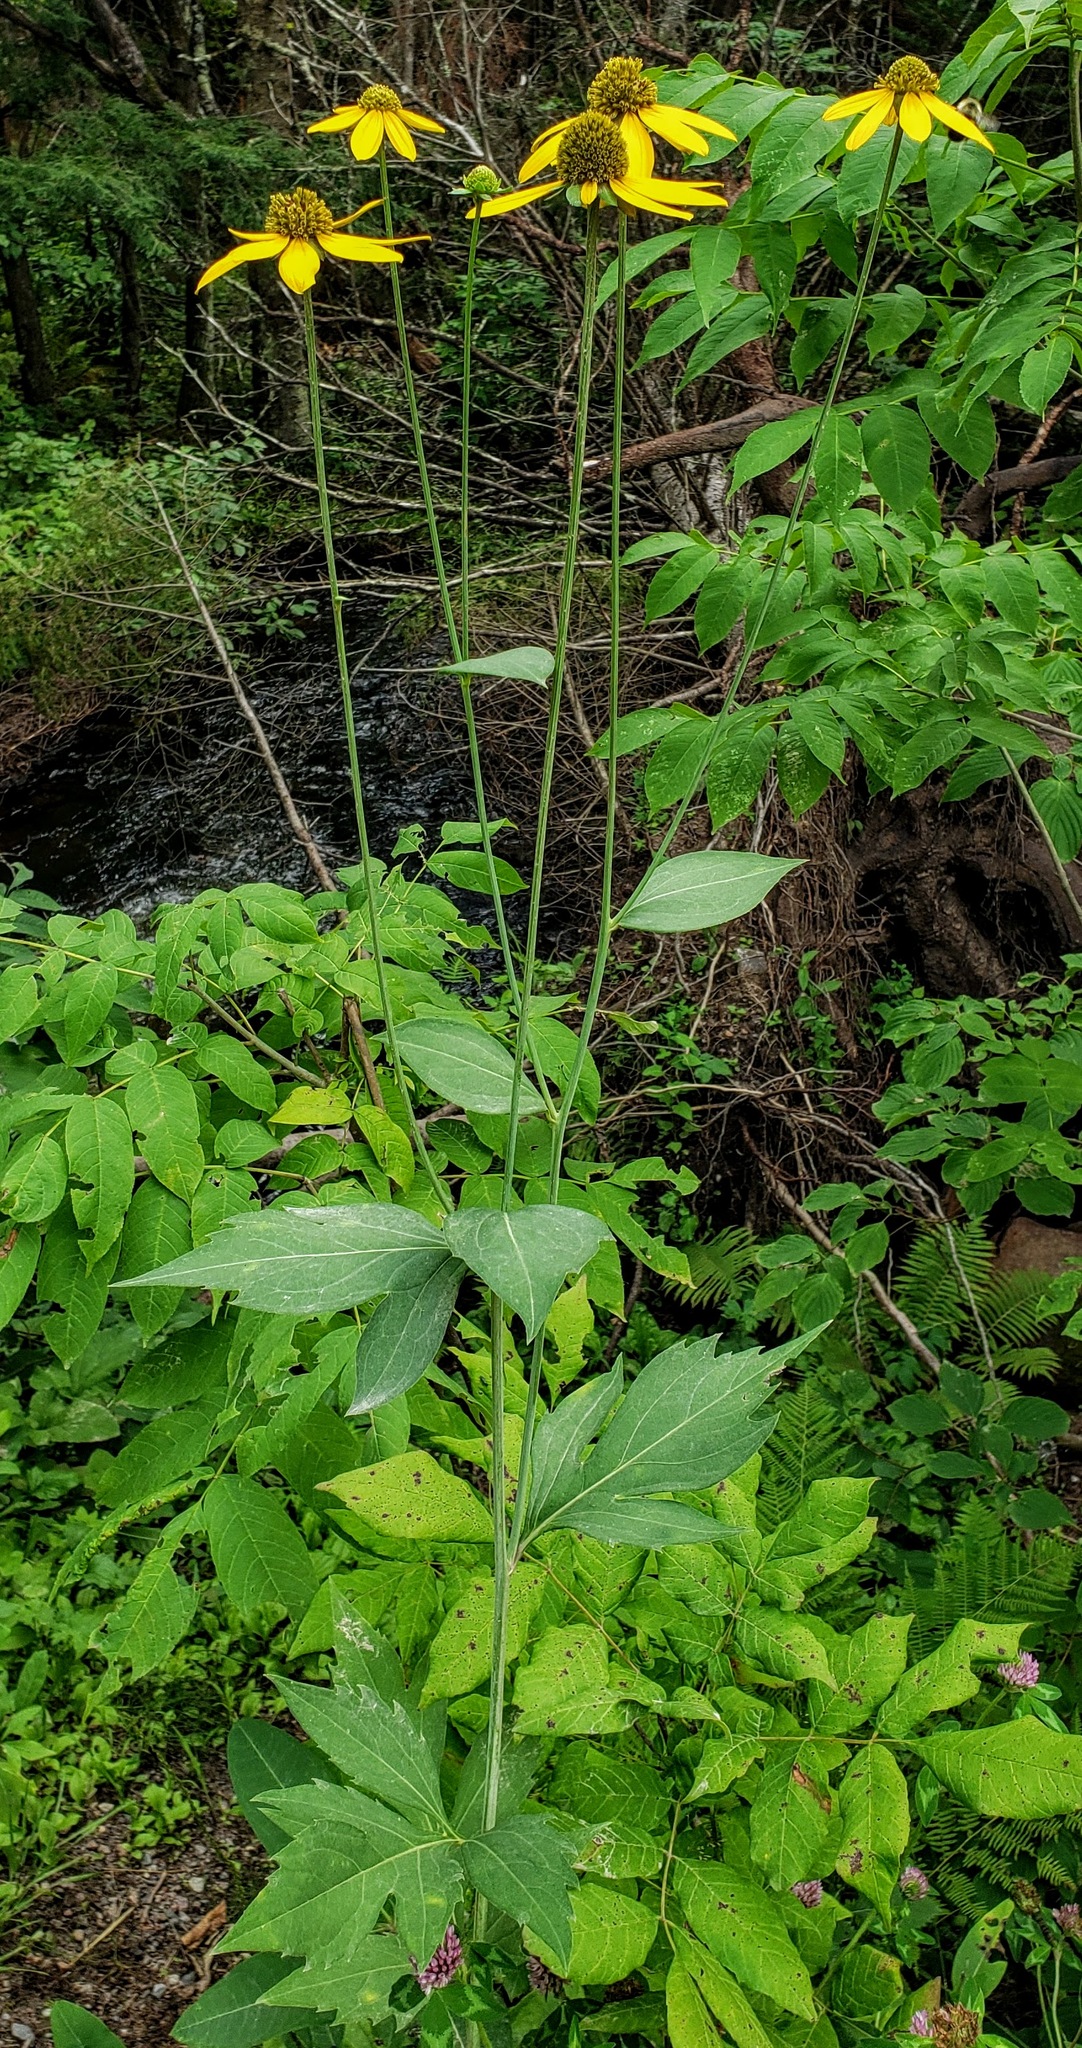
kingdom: Plantae
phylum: Tracheophyta
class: Magnoliopsida
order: Asterales
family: Asteraceae
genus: Rudbeckia
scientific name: Rudbeckia laciniata
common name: Coneflower
